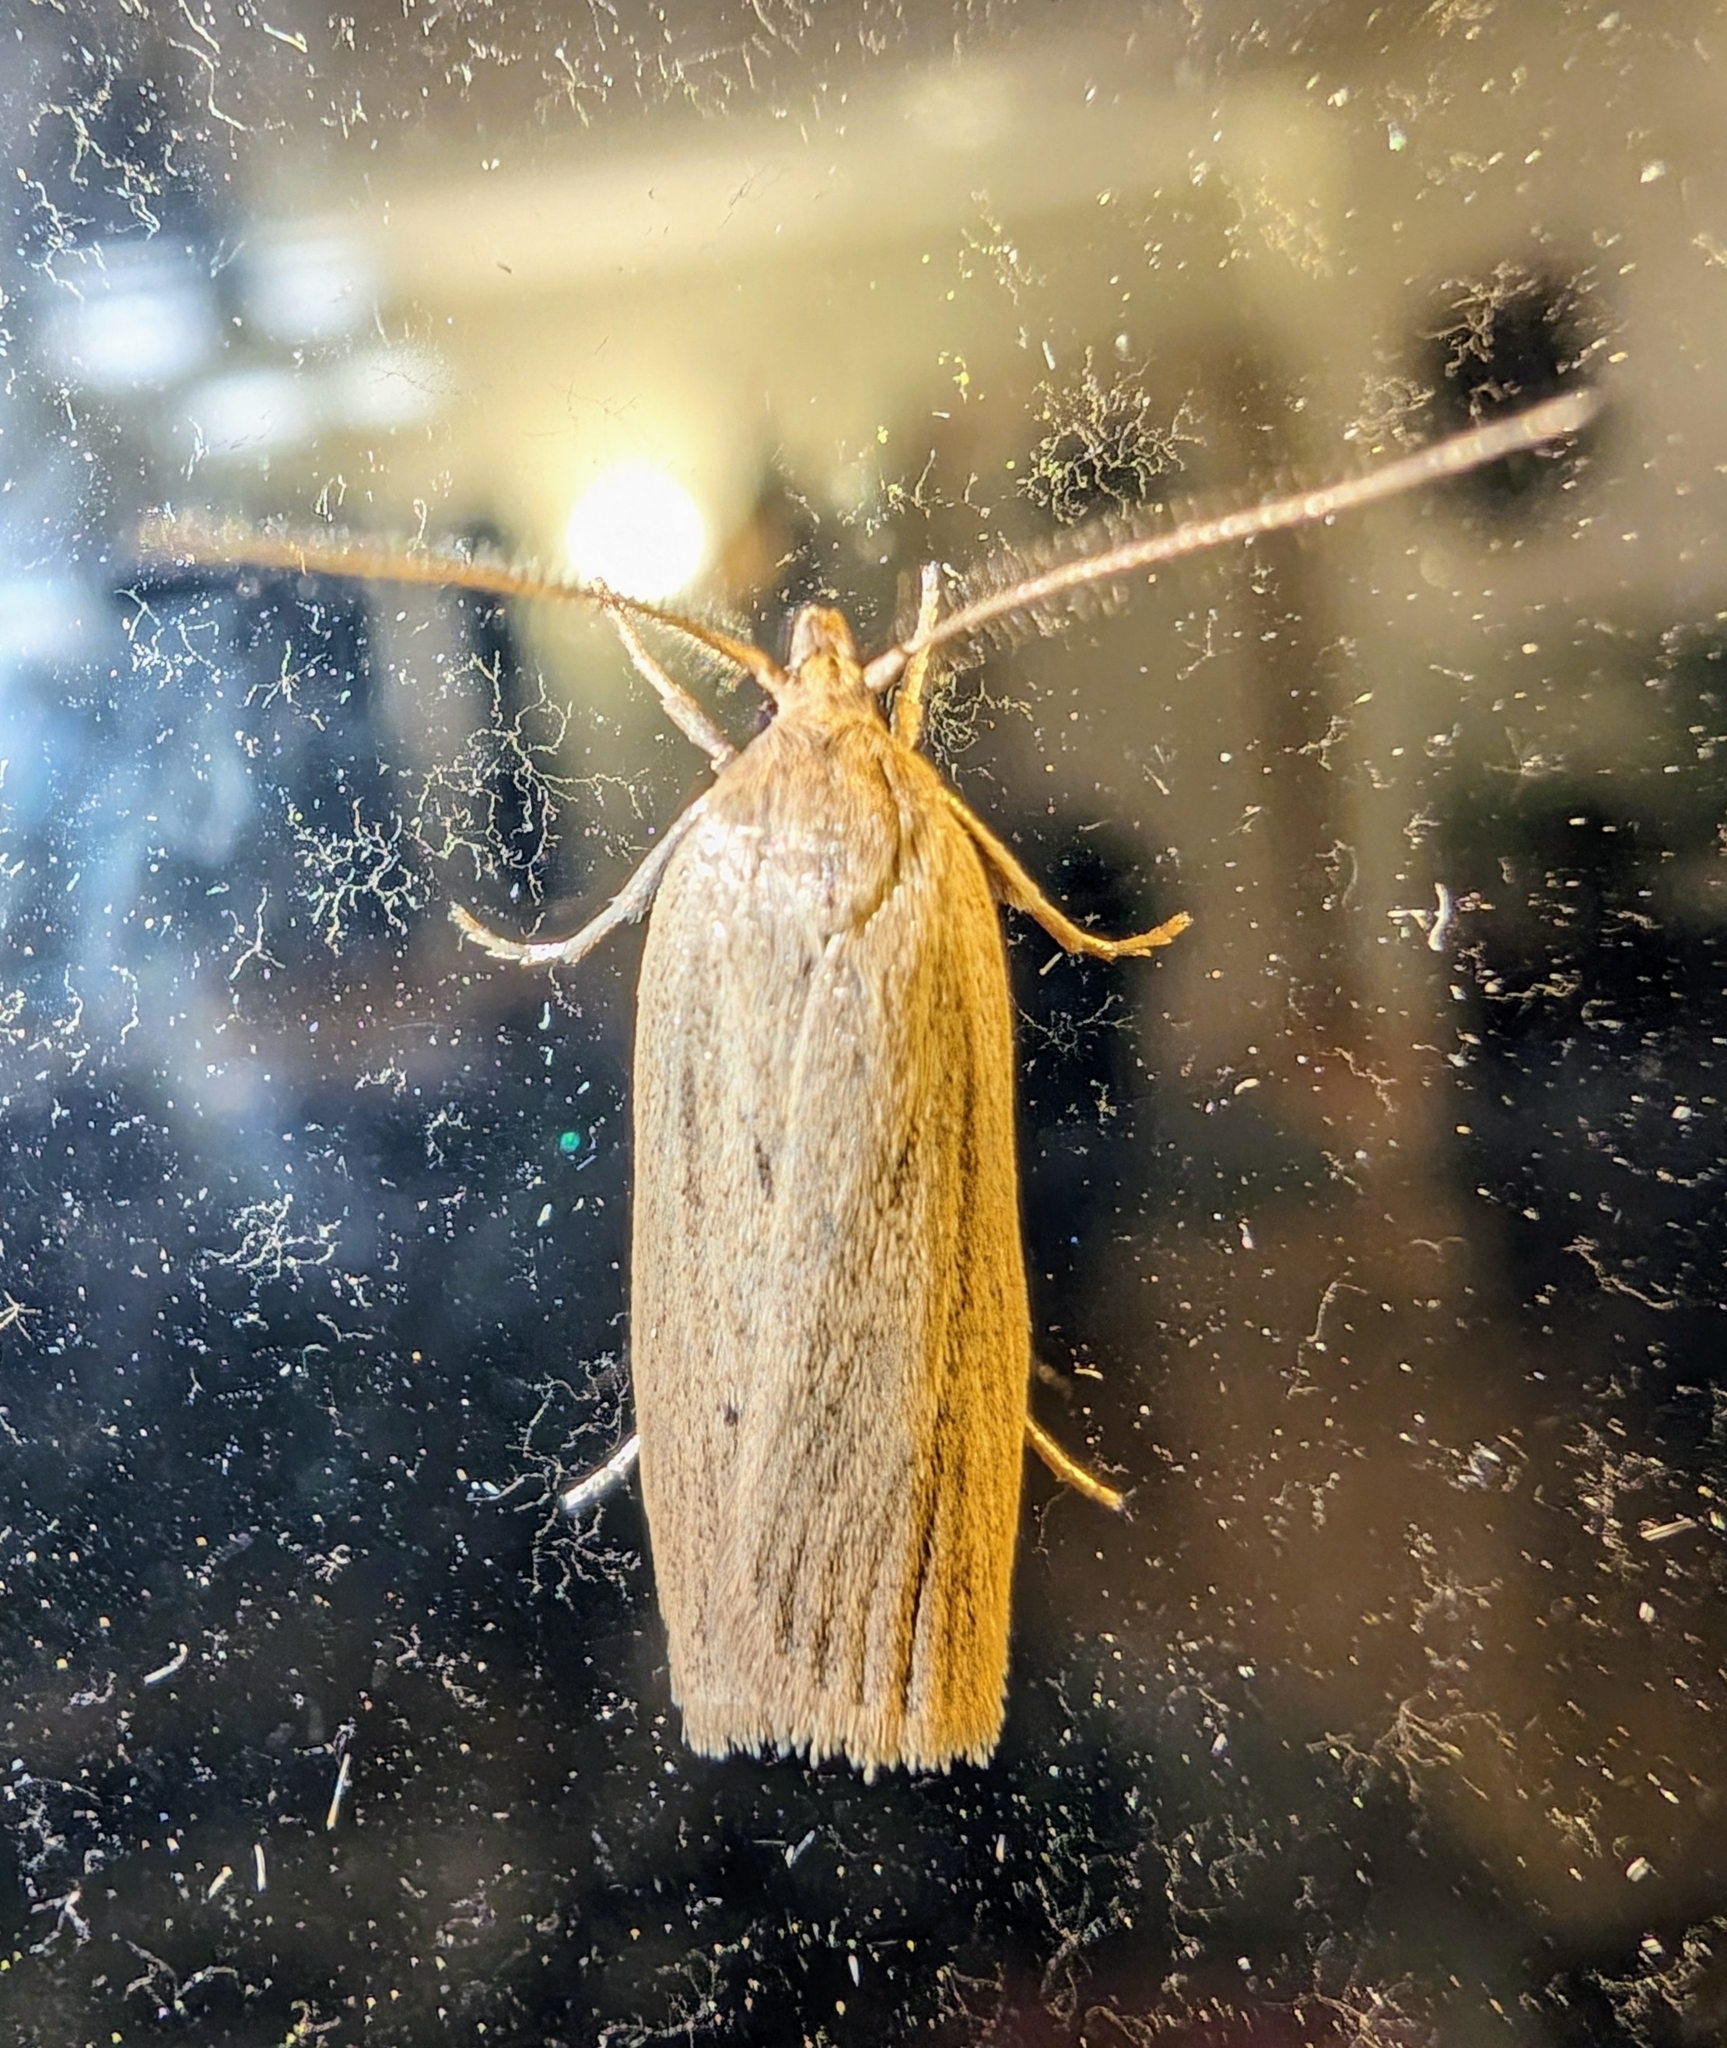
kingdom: Animalia
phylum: Arthropoda
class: Insecta
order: Lepidoptera
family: Depressariidae
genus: Gonioterma
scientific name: Gonioterma mistrella
